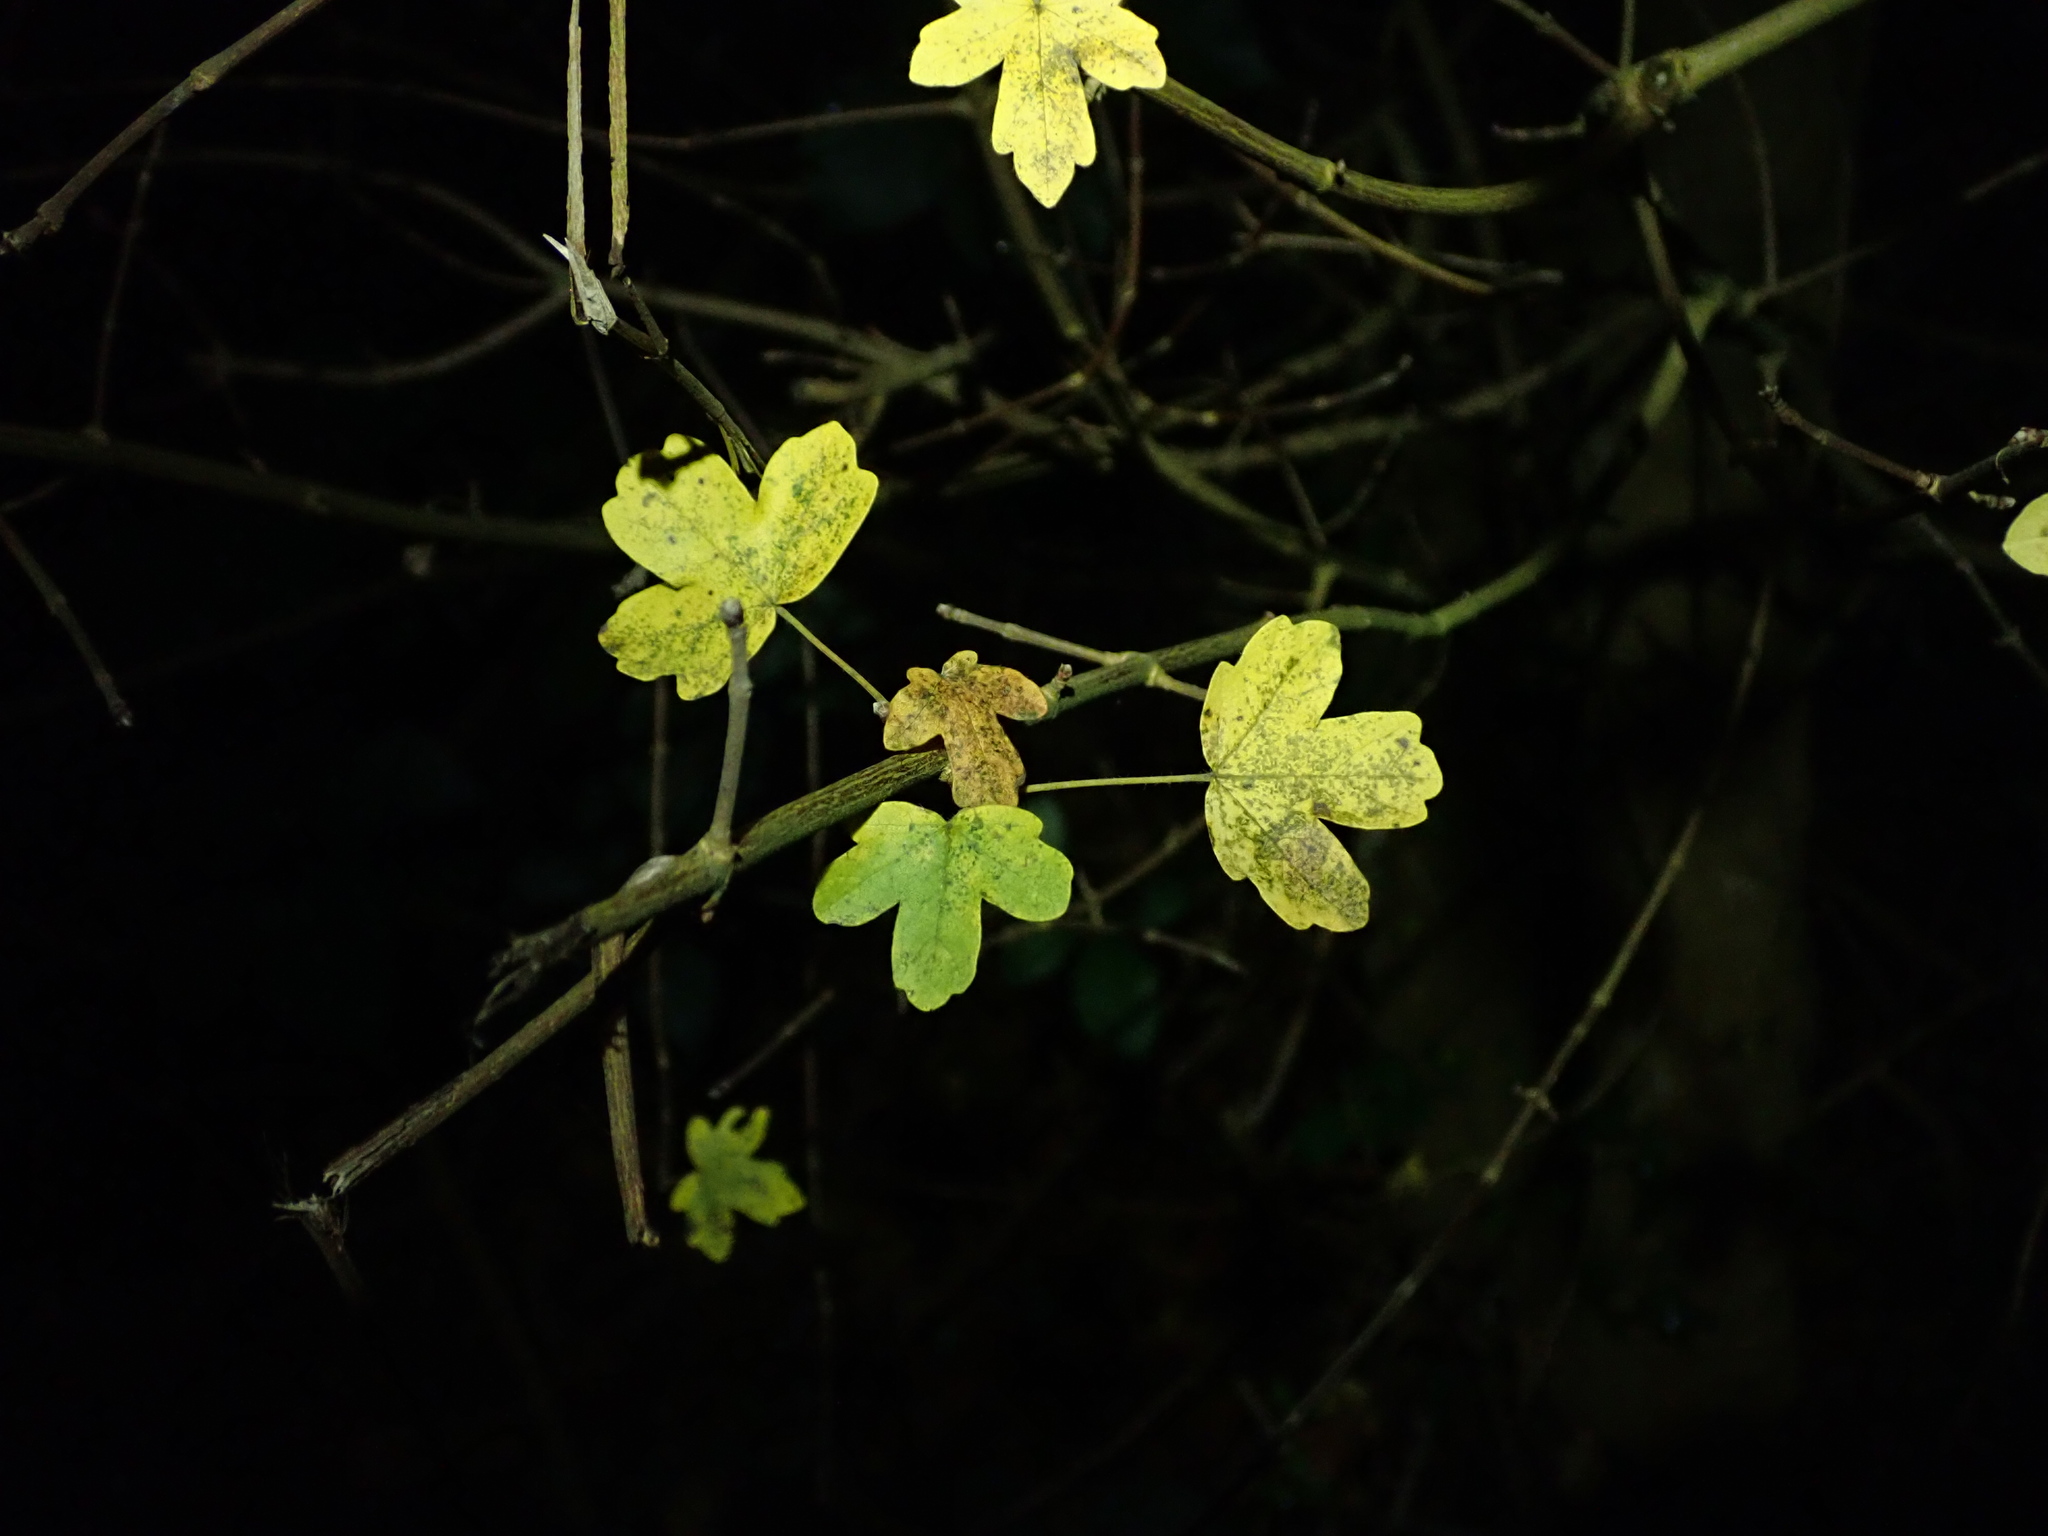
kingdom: Plantae
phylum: Tracheophyta
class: Magnoliopsida
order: Sapindales
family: Sapindaceae
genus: Acer
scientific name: Acer campestre
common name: Field maple
